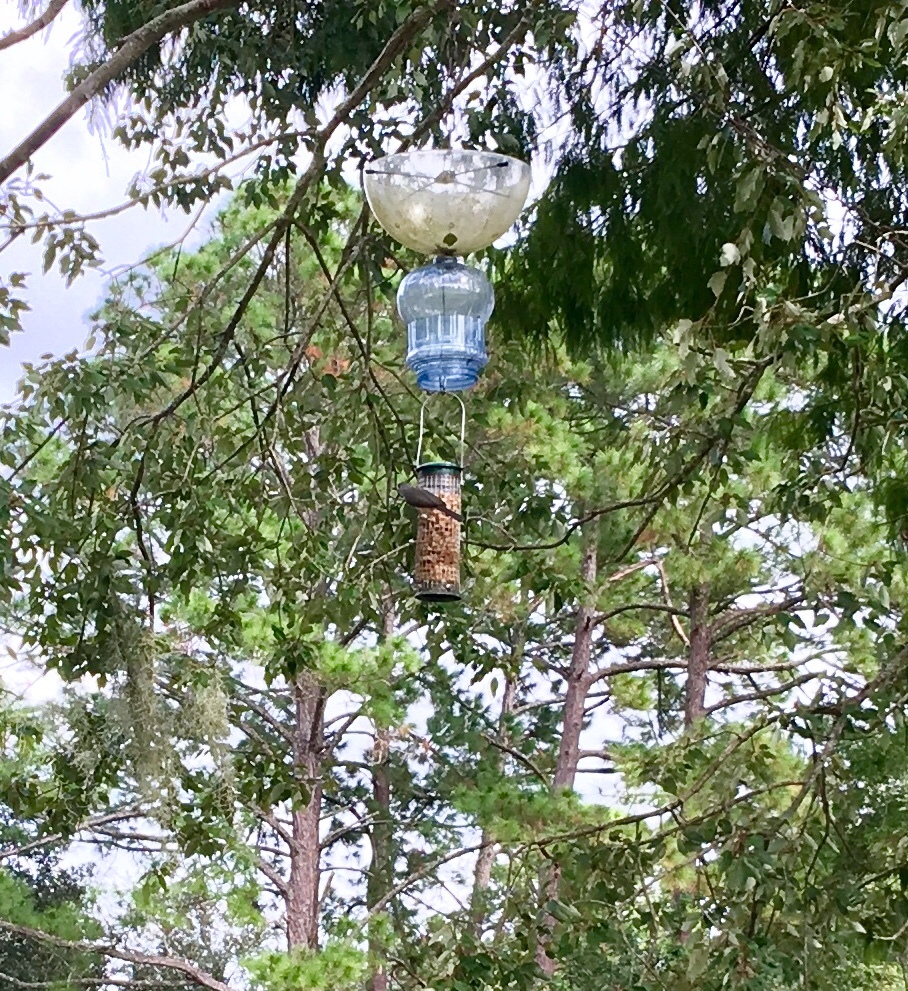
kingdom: Animalia
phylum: Chordata
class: Aves
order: Passeriformes
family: Paridae
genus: Baeolophus
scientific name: Baeolophus bicolor
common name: Tufted titmouse
